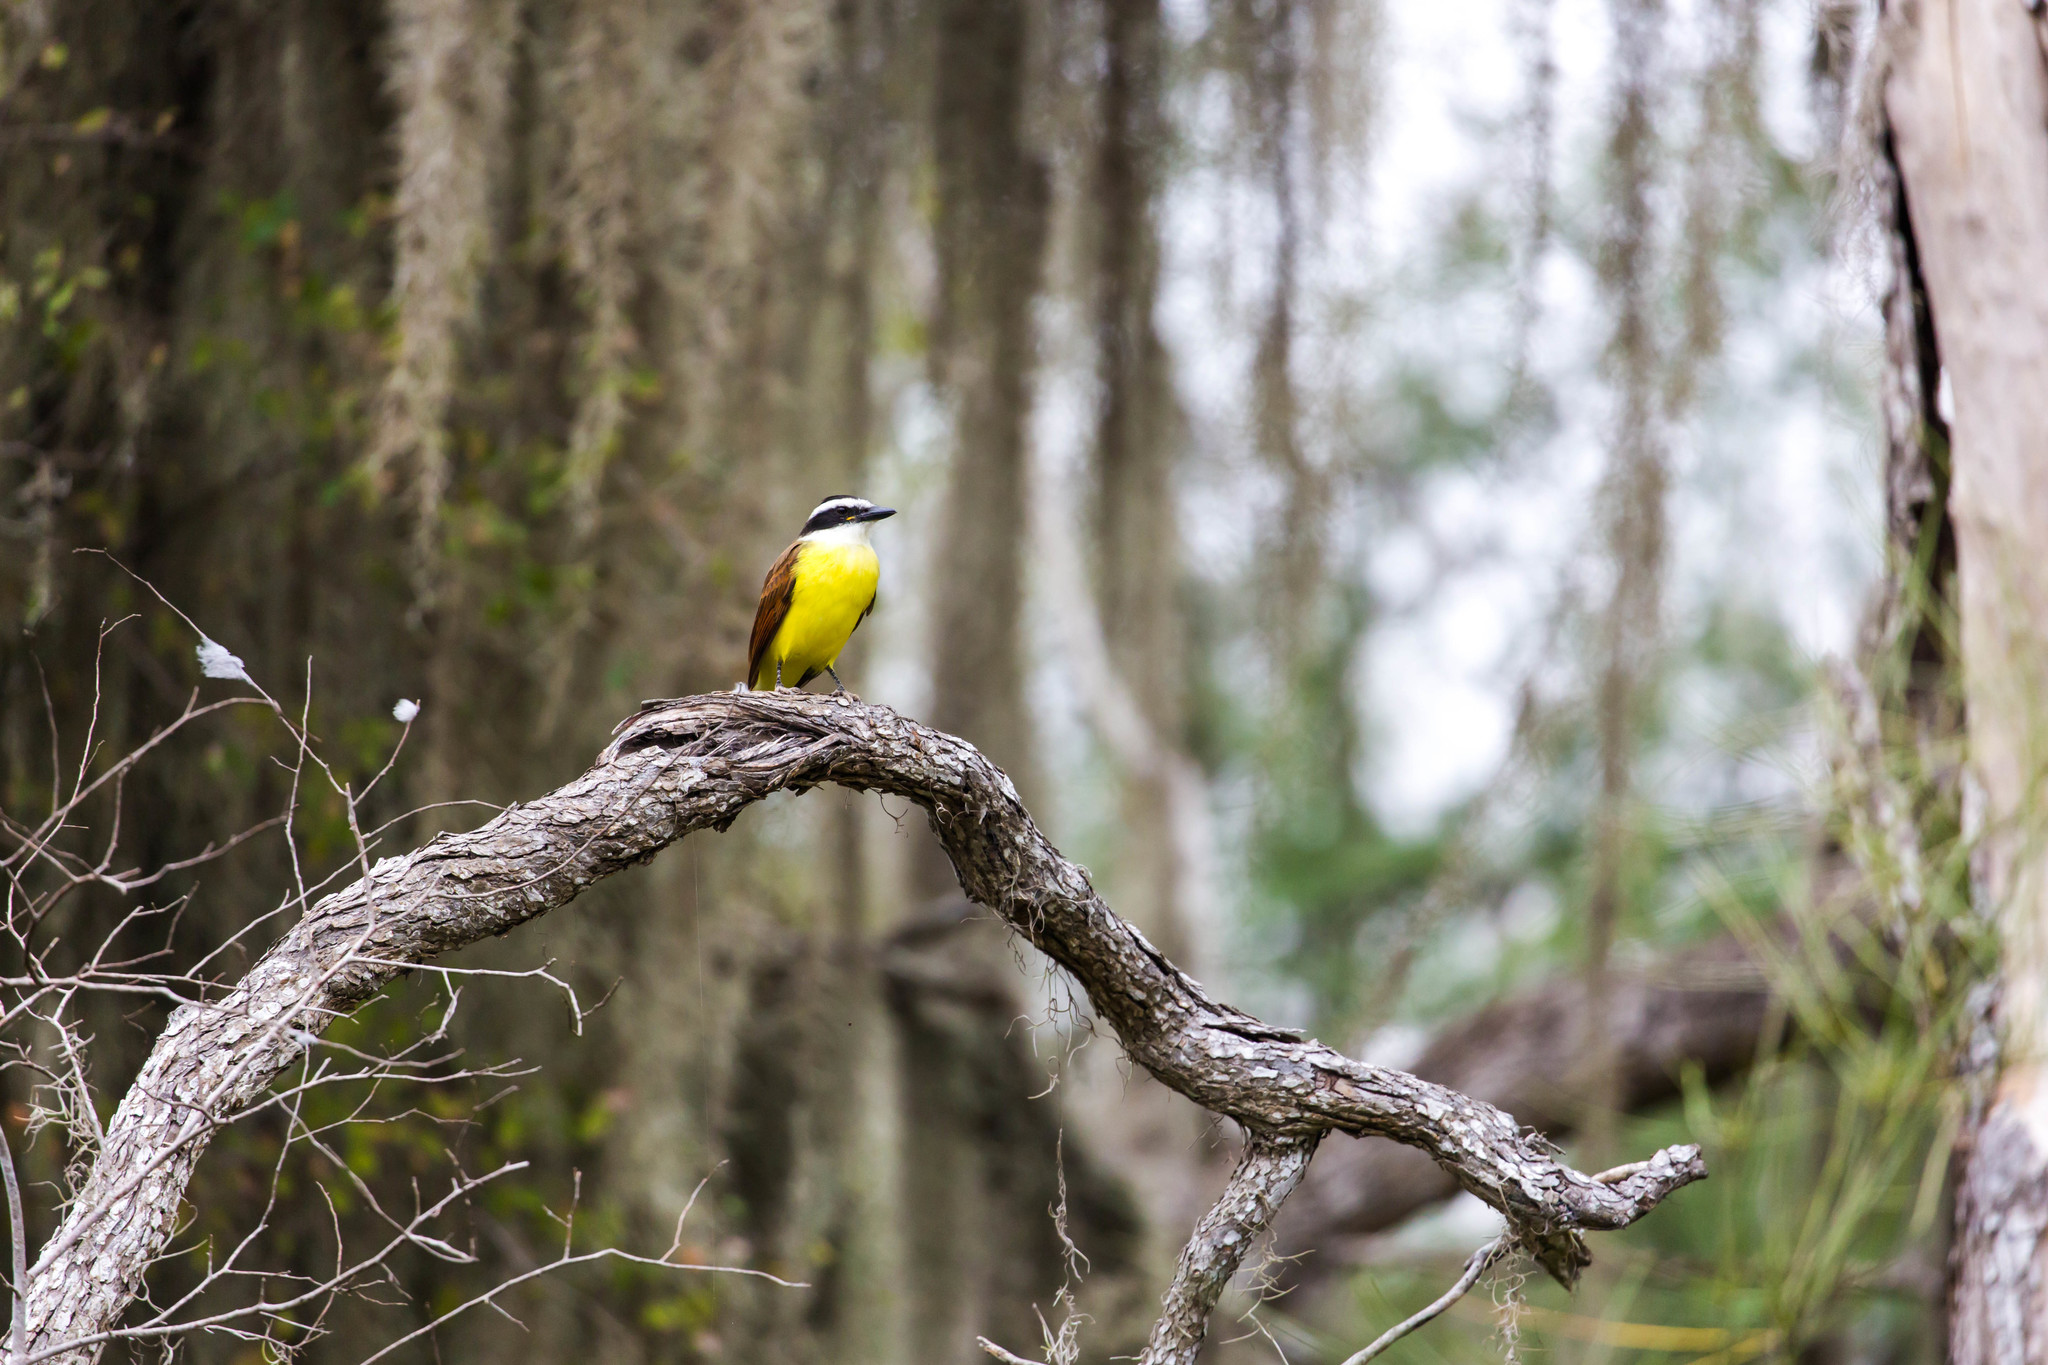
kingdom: Animalia
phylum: Chordata
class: Aves
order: Passeriformes
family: Tyrannidae
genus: Pitangus
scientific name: Pitangus sulphuratus
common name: Great kiskadee
